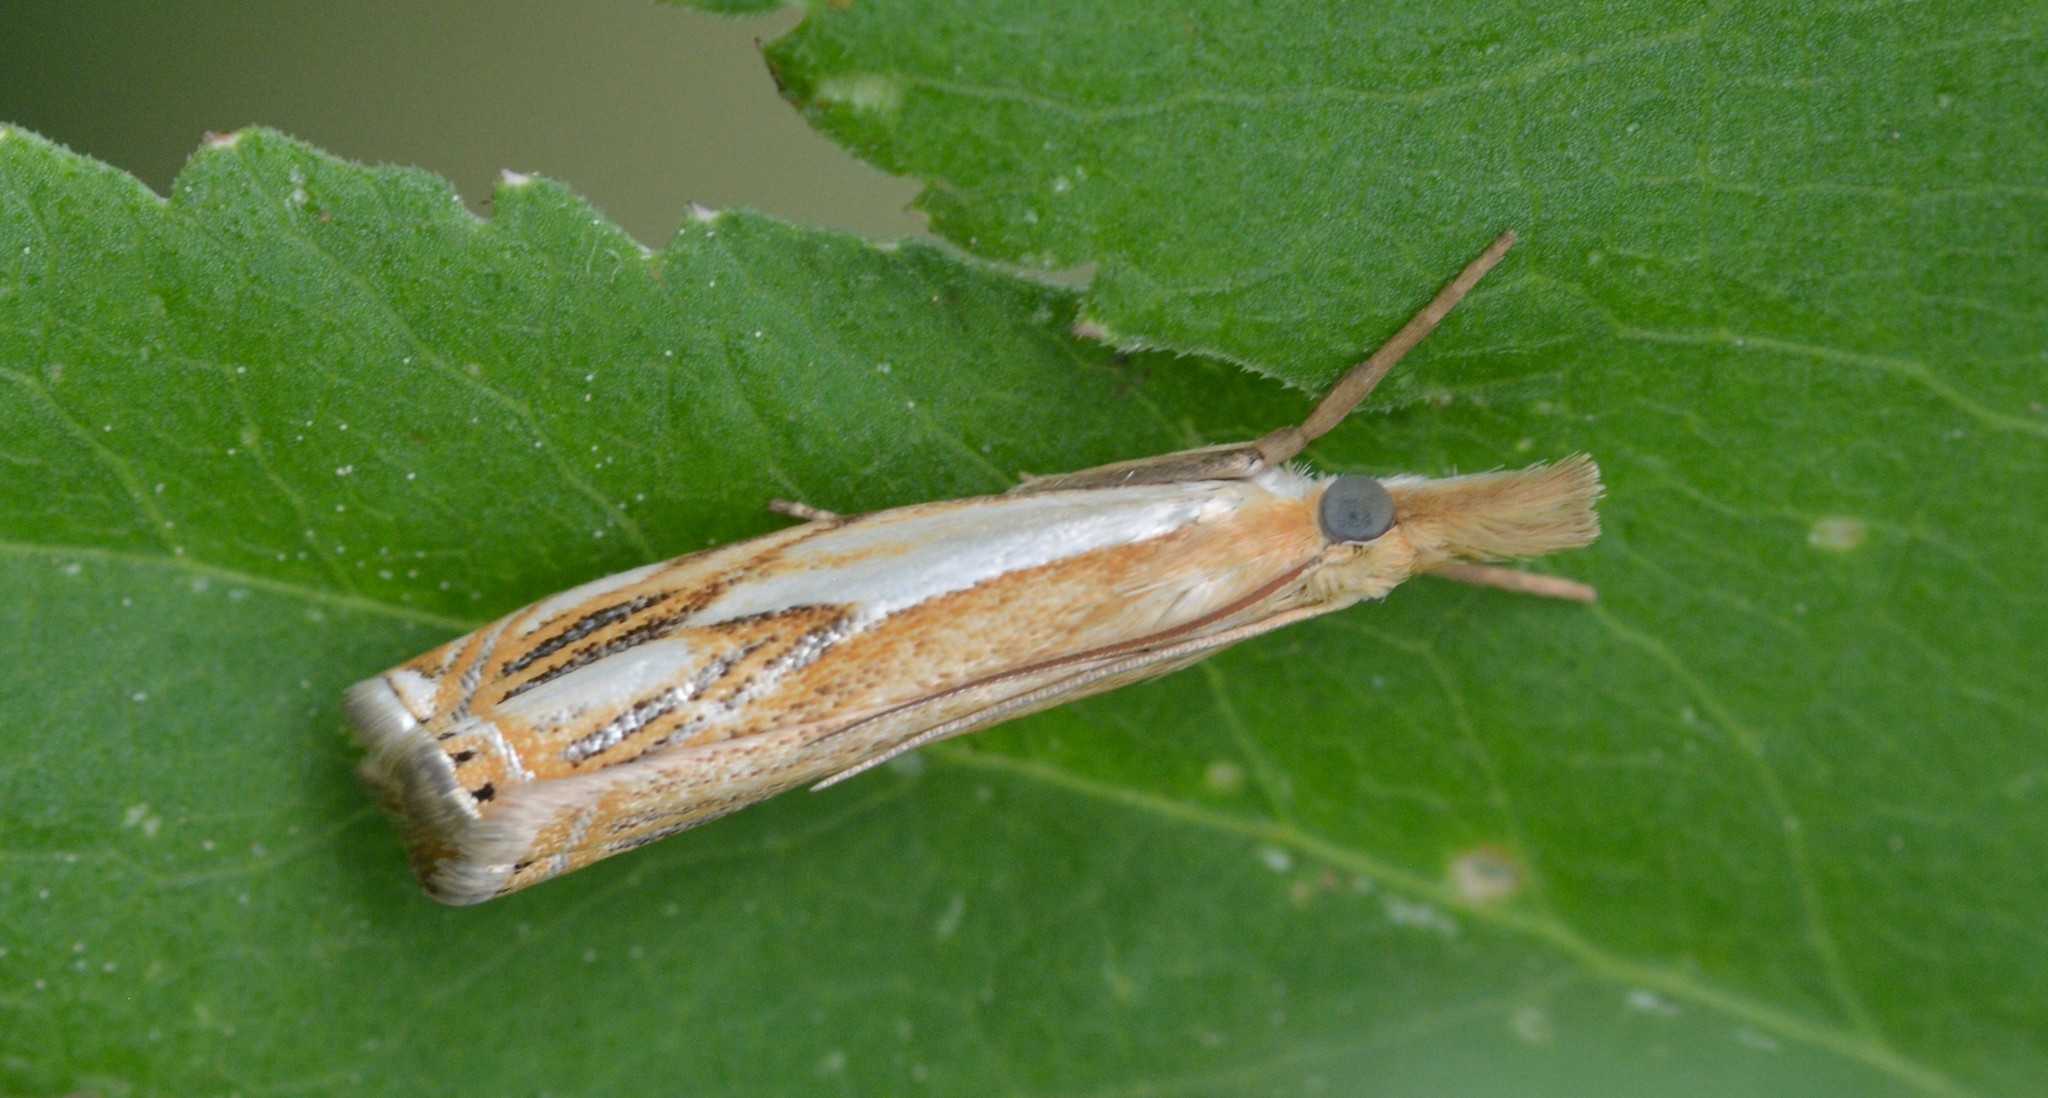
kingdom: Animalia
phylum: Arthropoda
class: Insecta
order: Lepidoptera
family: Crambidae
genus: Crambus
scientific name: Crambus agitatellus
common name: Double-banded grass-veneer
